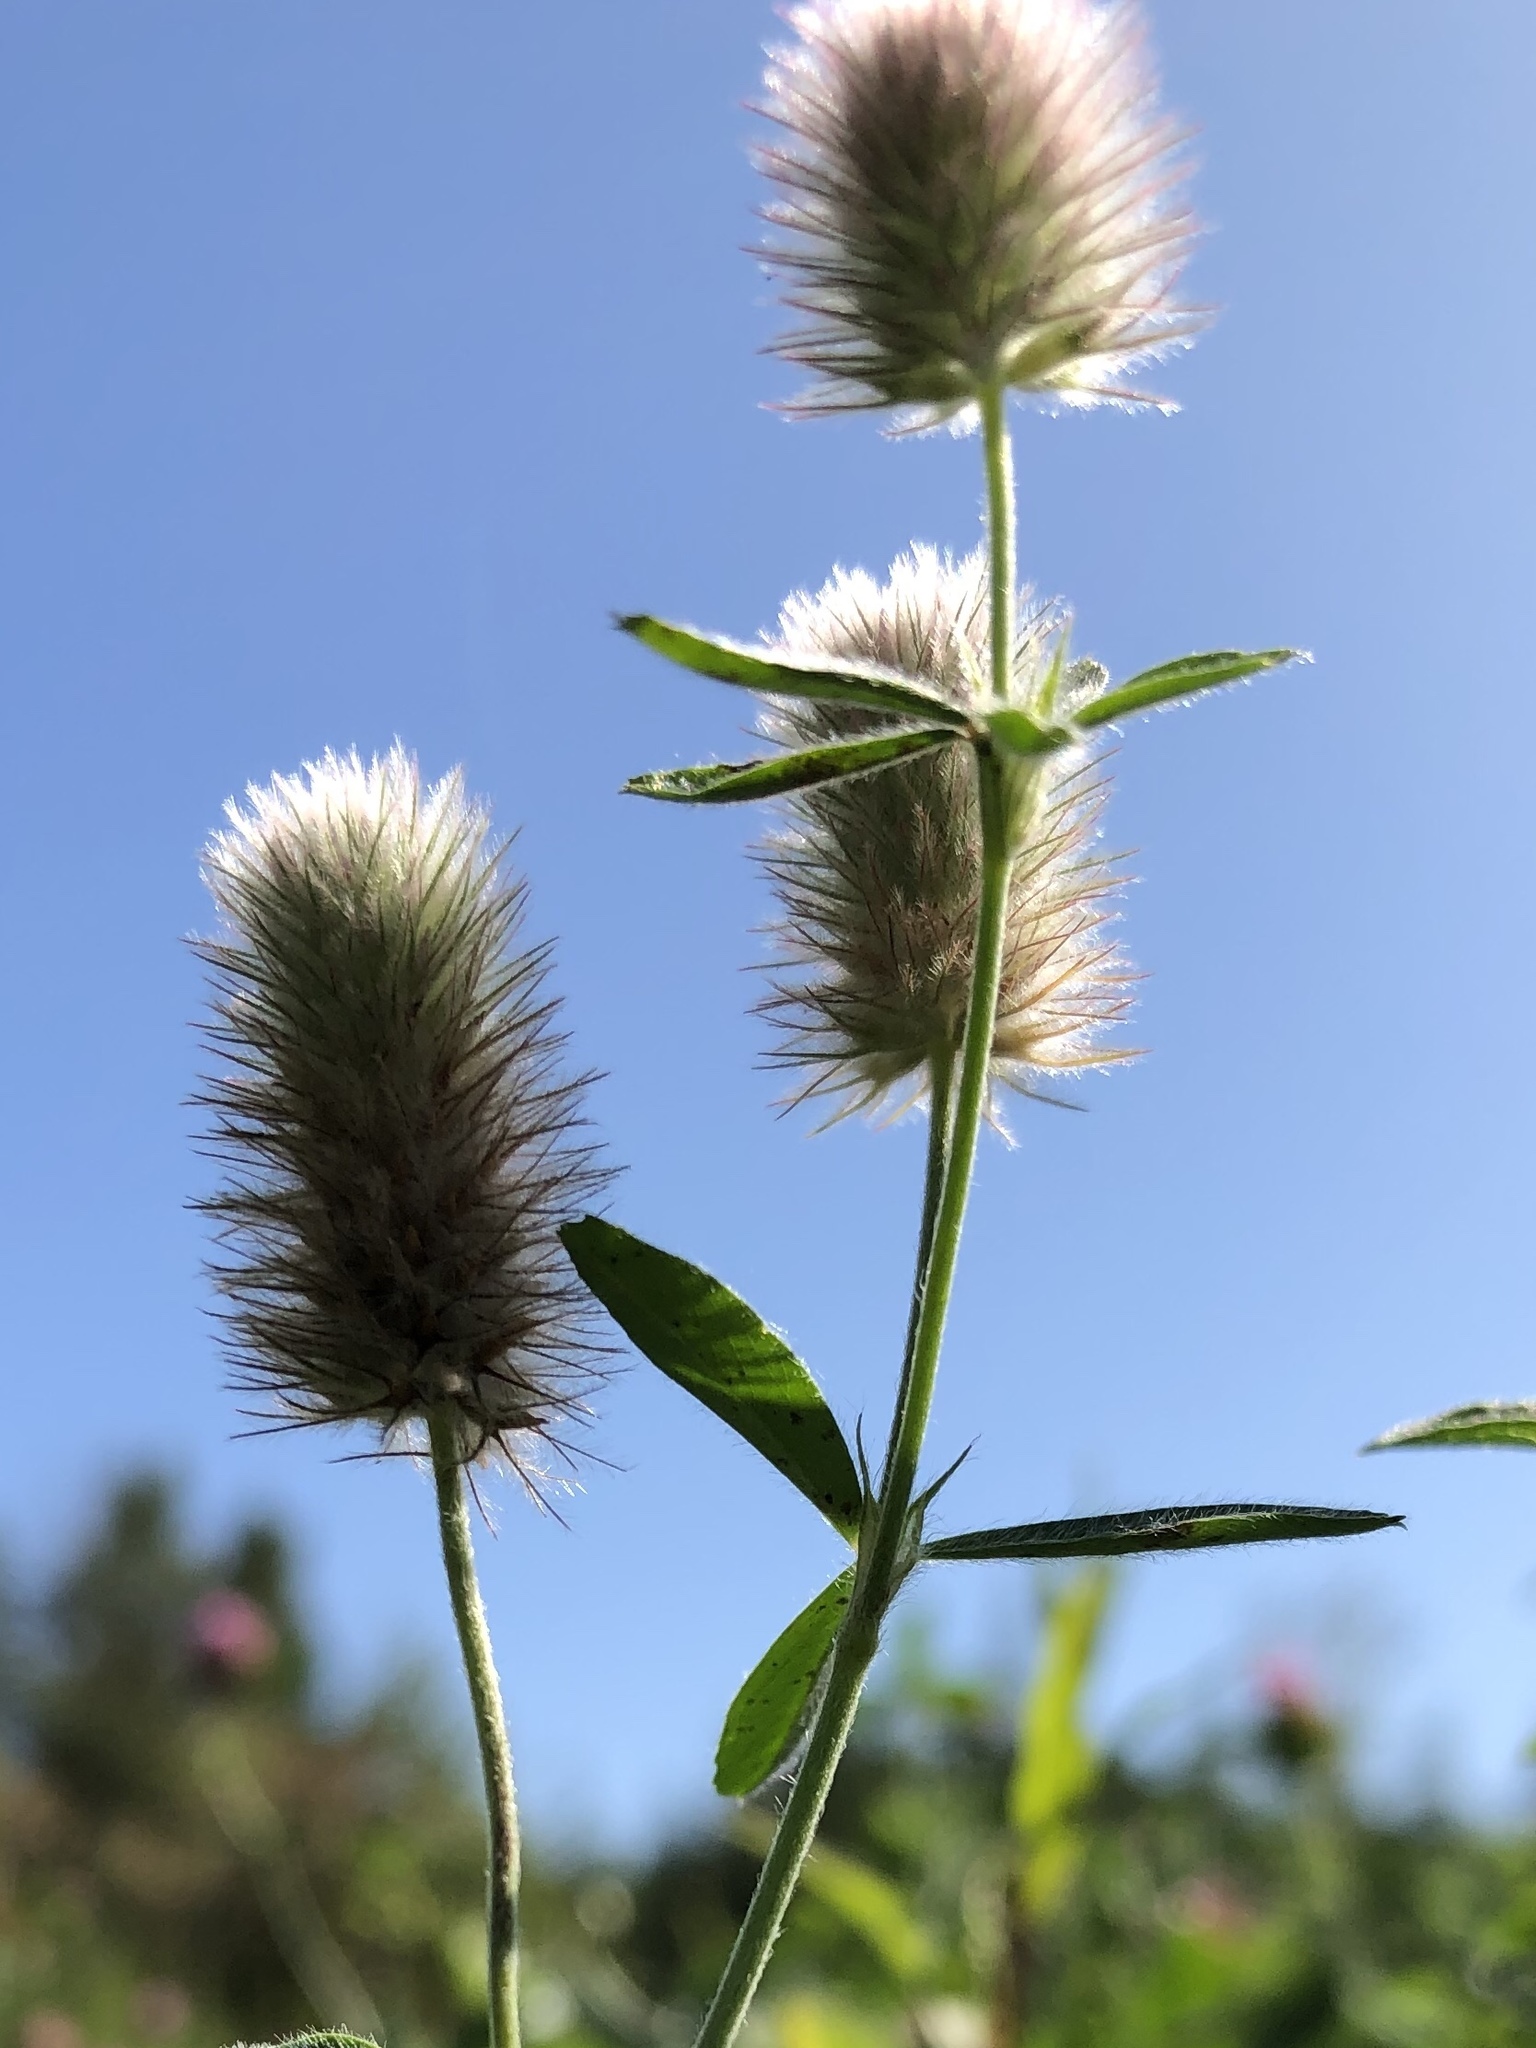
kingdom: Plantae
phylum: Tracheophyta
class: Magnoliopsida
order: Fabales
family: Fabaceae
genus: Trifolium
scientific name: Trifolium arvense
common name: Hare's-foot clover
